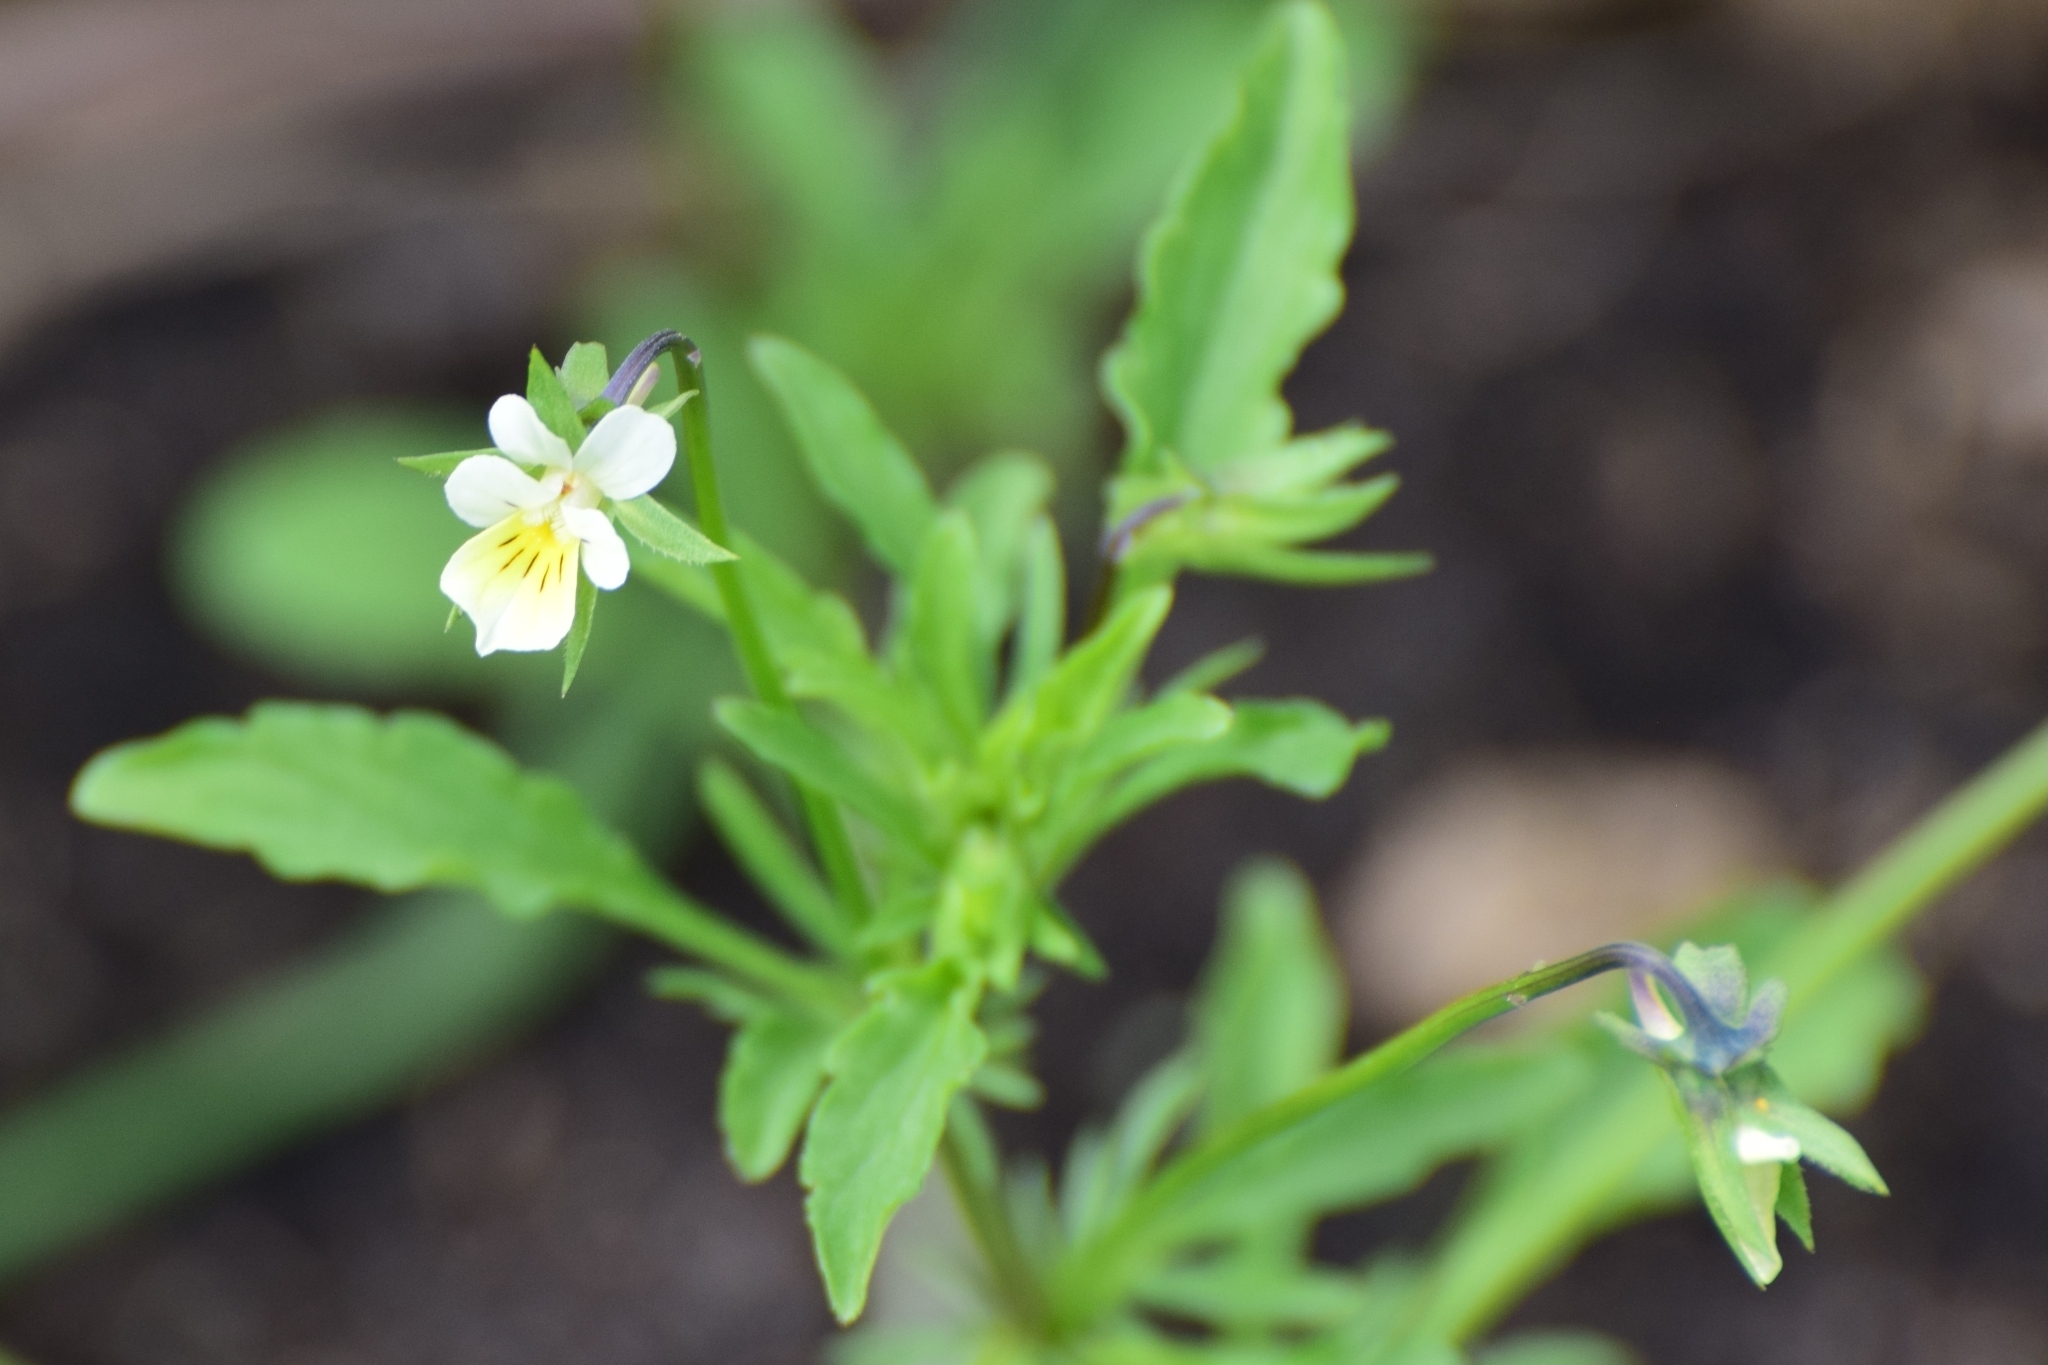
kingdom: Plantae
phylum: Tracheophyta
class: Magnoliopsida
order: Malpighiales
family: Violaceae
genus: Viola
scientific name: Viola arvensis
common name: Field pansy
